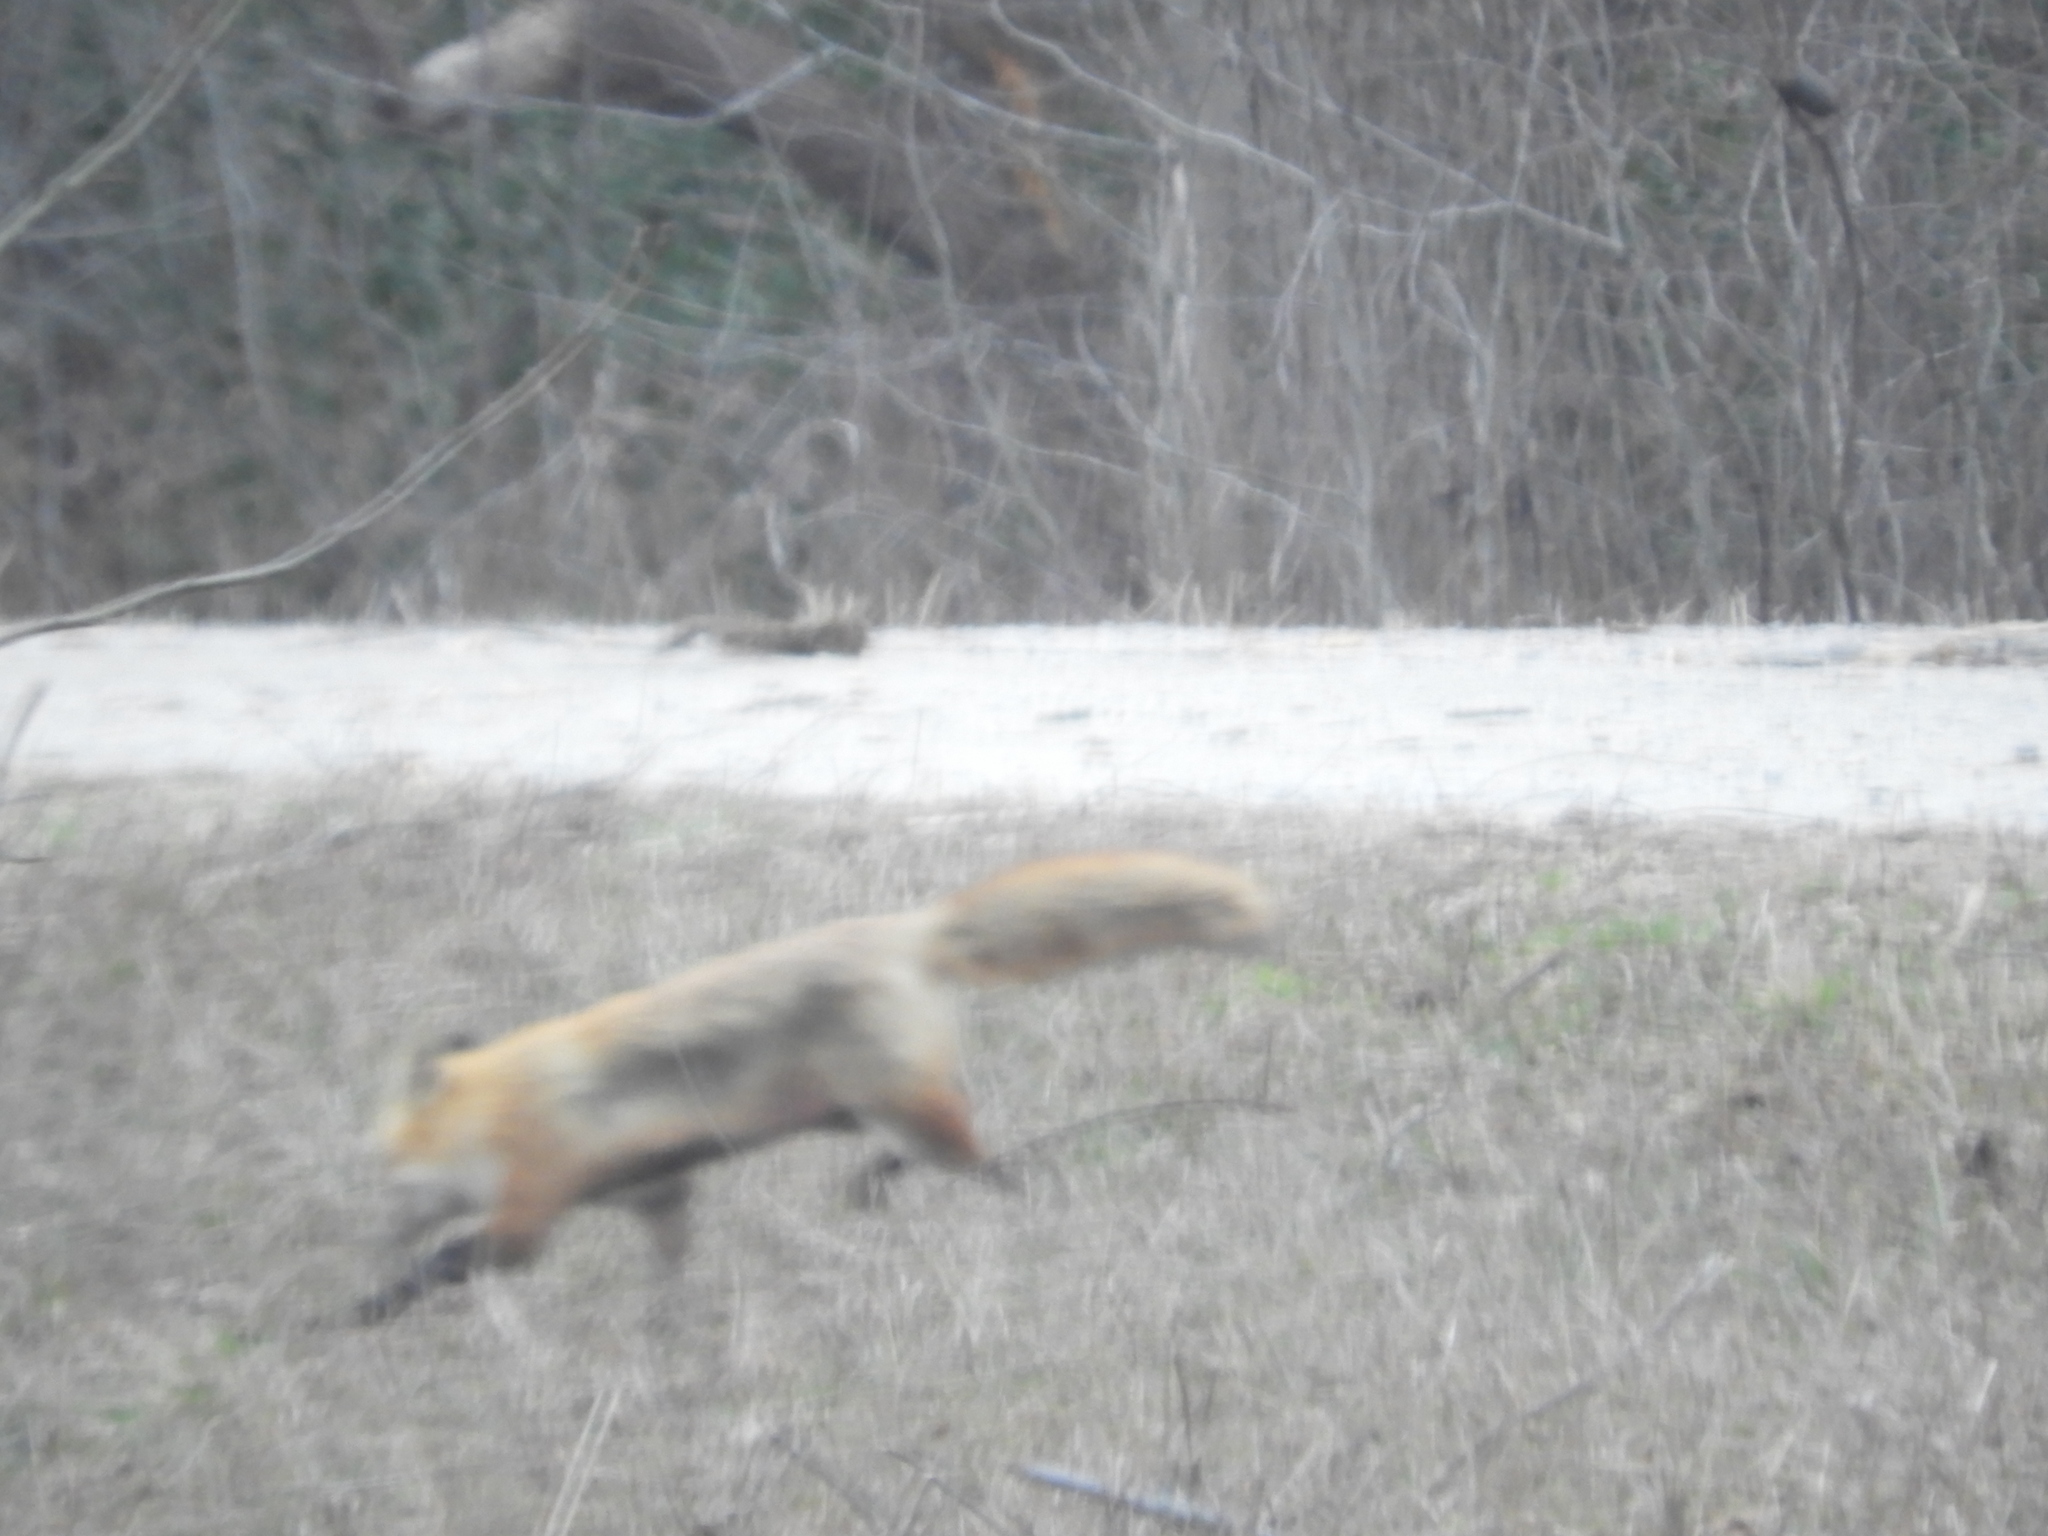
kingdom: Animalia
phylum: Chordata
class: Mammalia
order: Carnivora
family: Canidae
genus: Vulpes
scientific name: Vulpes vulpes
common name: Red fox
